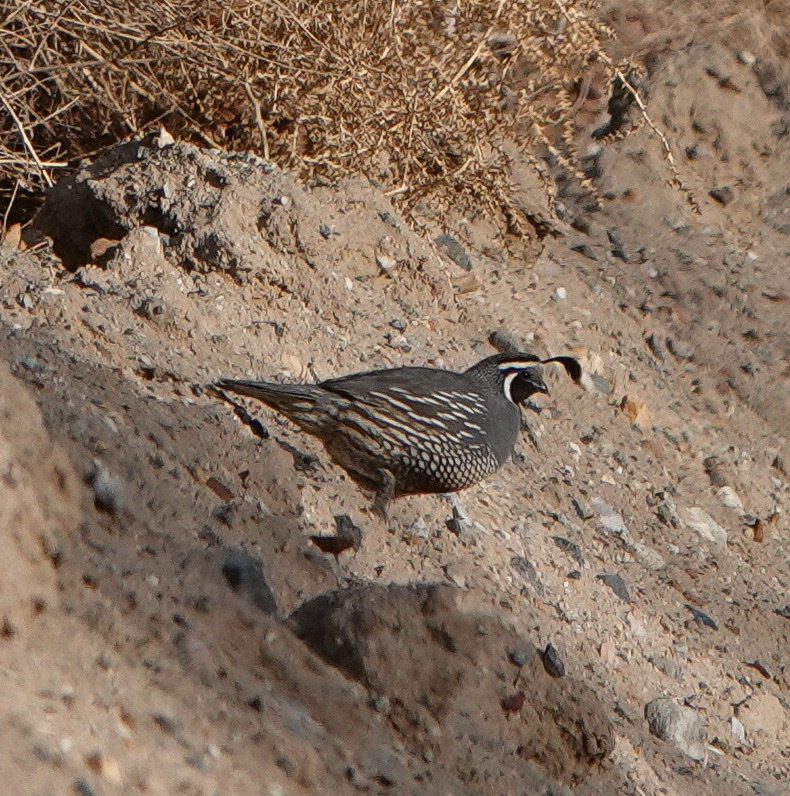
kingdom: Animalia
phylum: Chordata
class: Aves
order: Galliformes
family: Odontophoridae
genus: Callipepla
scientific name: Callipepla californica
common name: California quail
